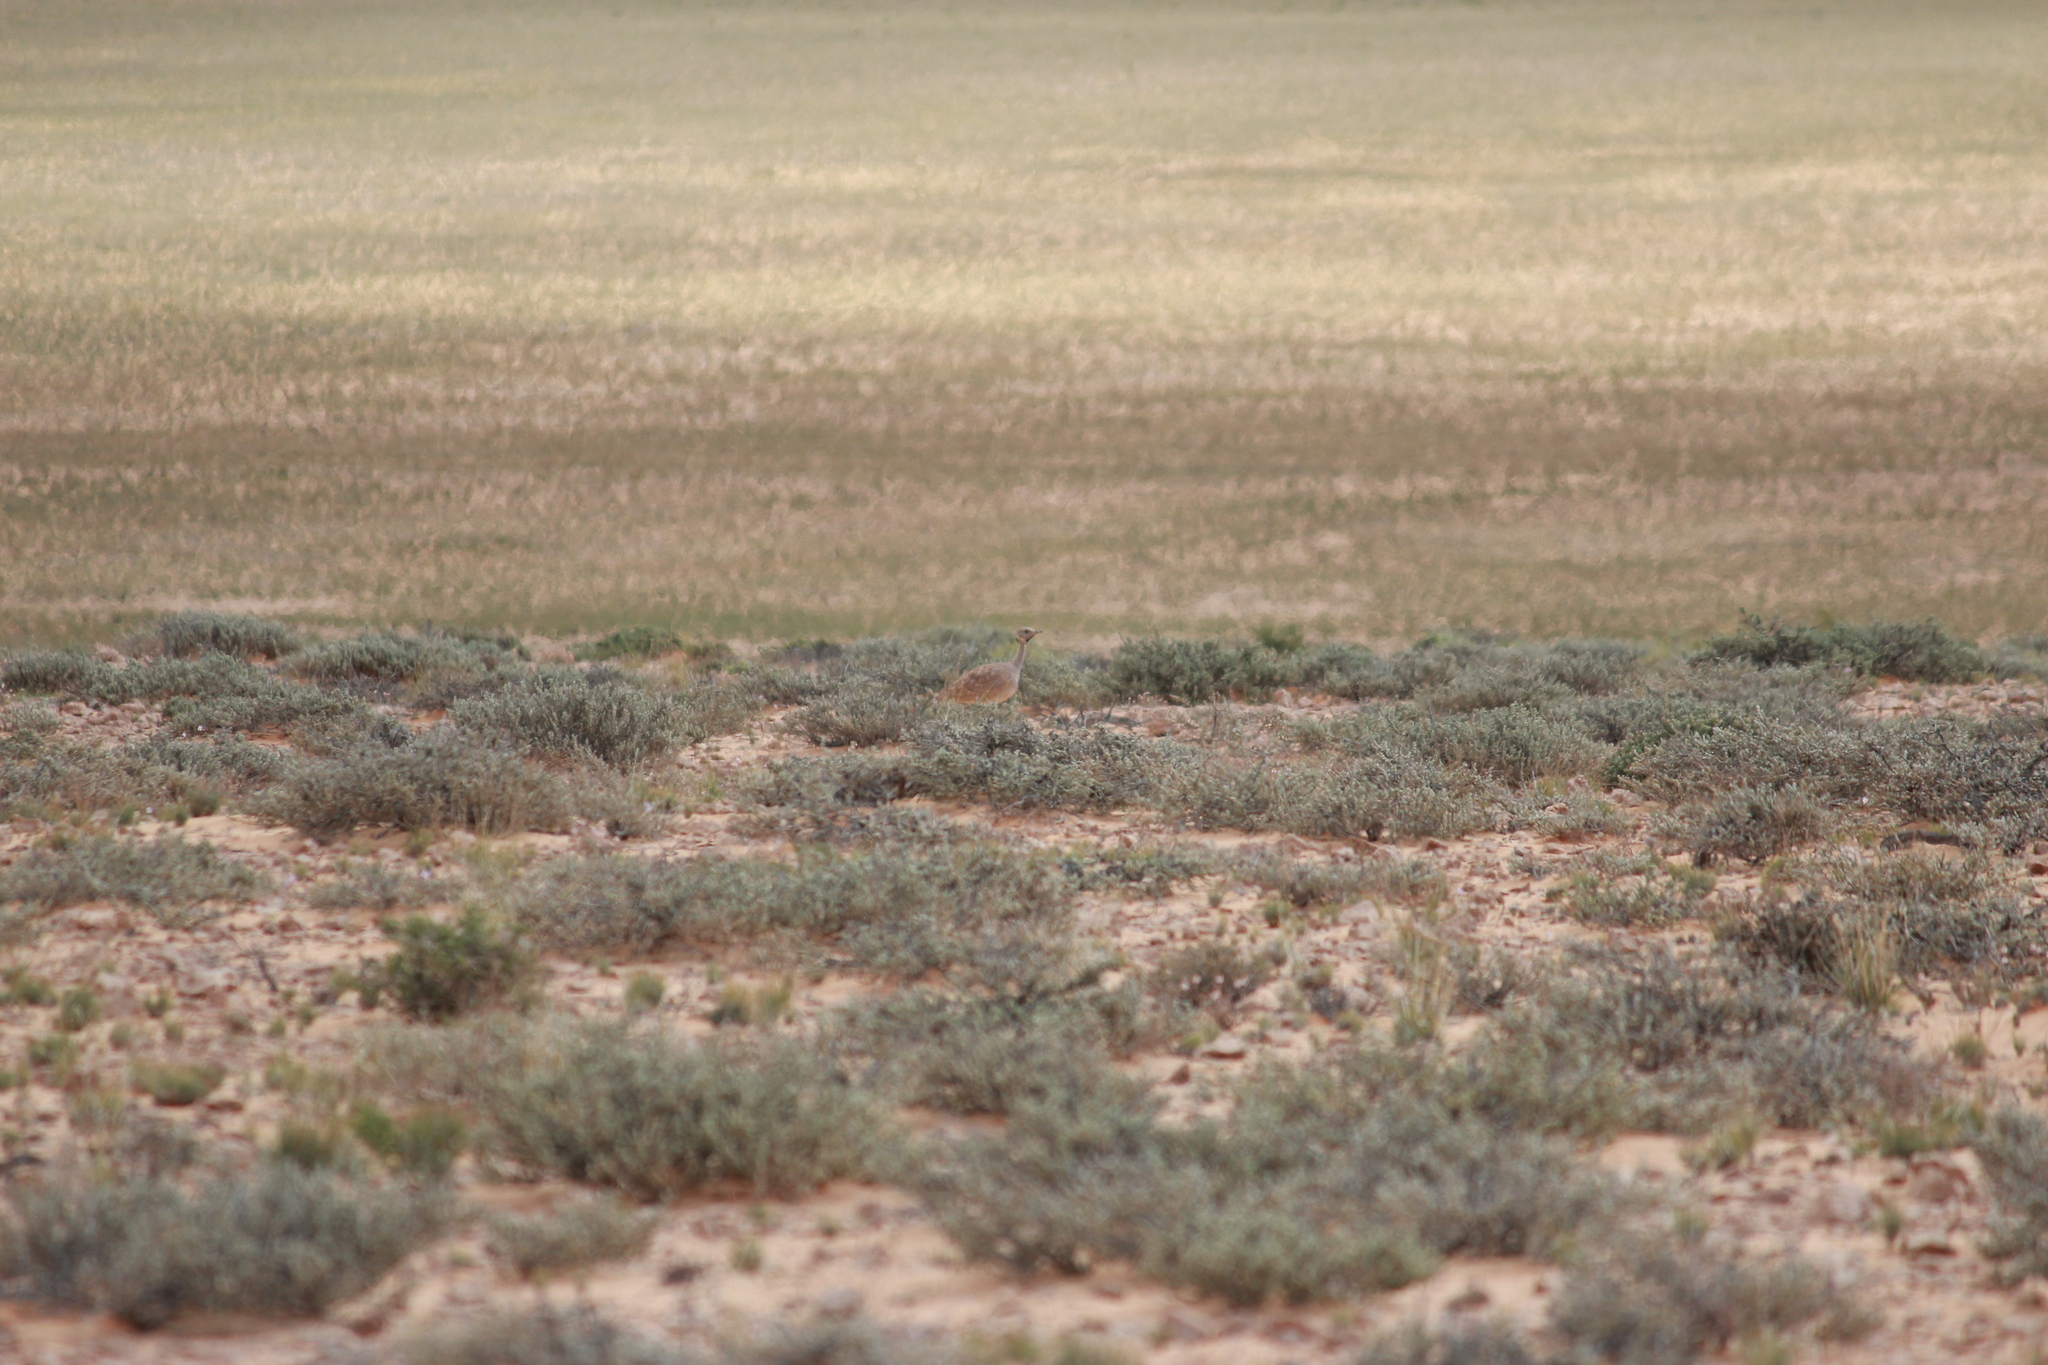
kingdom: Animalia
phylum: Chordata
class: Aves
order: Otidiformes
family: Otididae
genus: Eupodotis
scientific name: Eupodotis vigorsii
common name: Karoo korhaan
